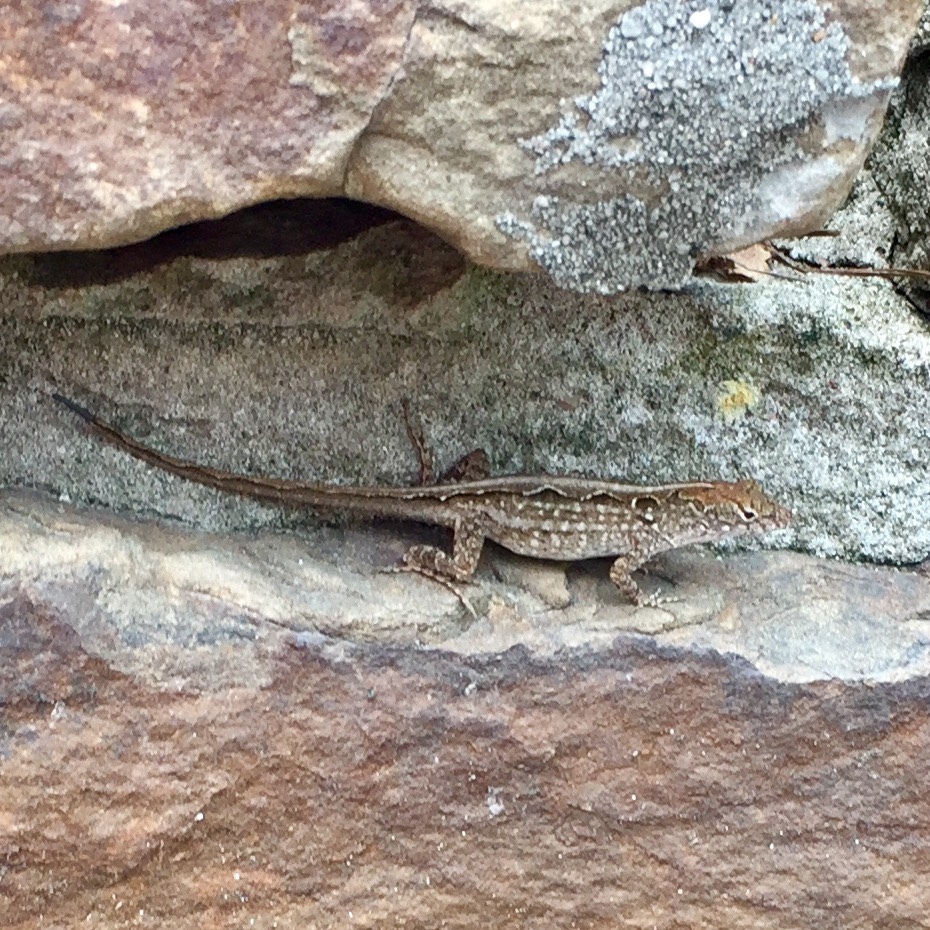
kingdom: Animalia
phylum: Chordata
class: Squamata
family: Dactyloidae
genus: Anolis
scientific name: Anolis sagrei
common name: Brown anole
